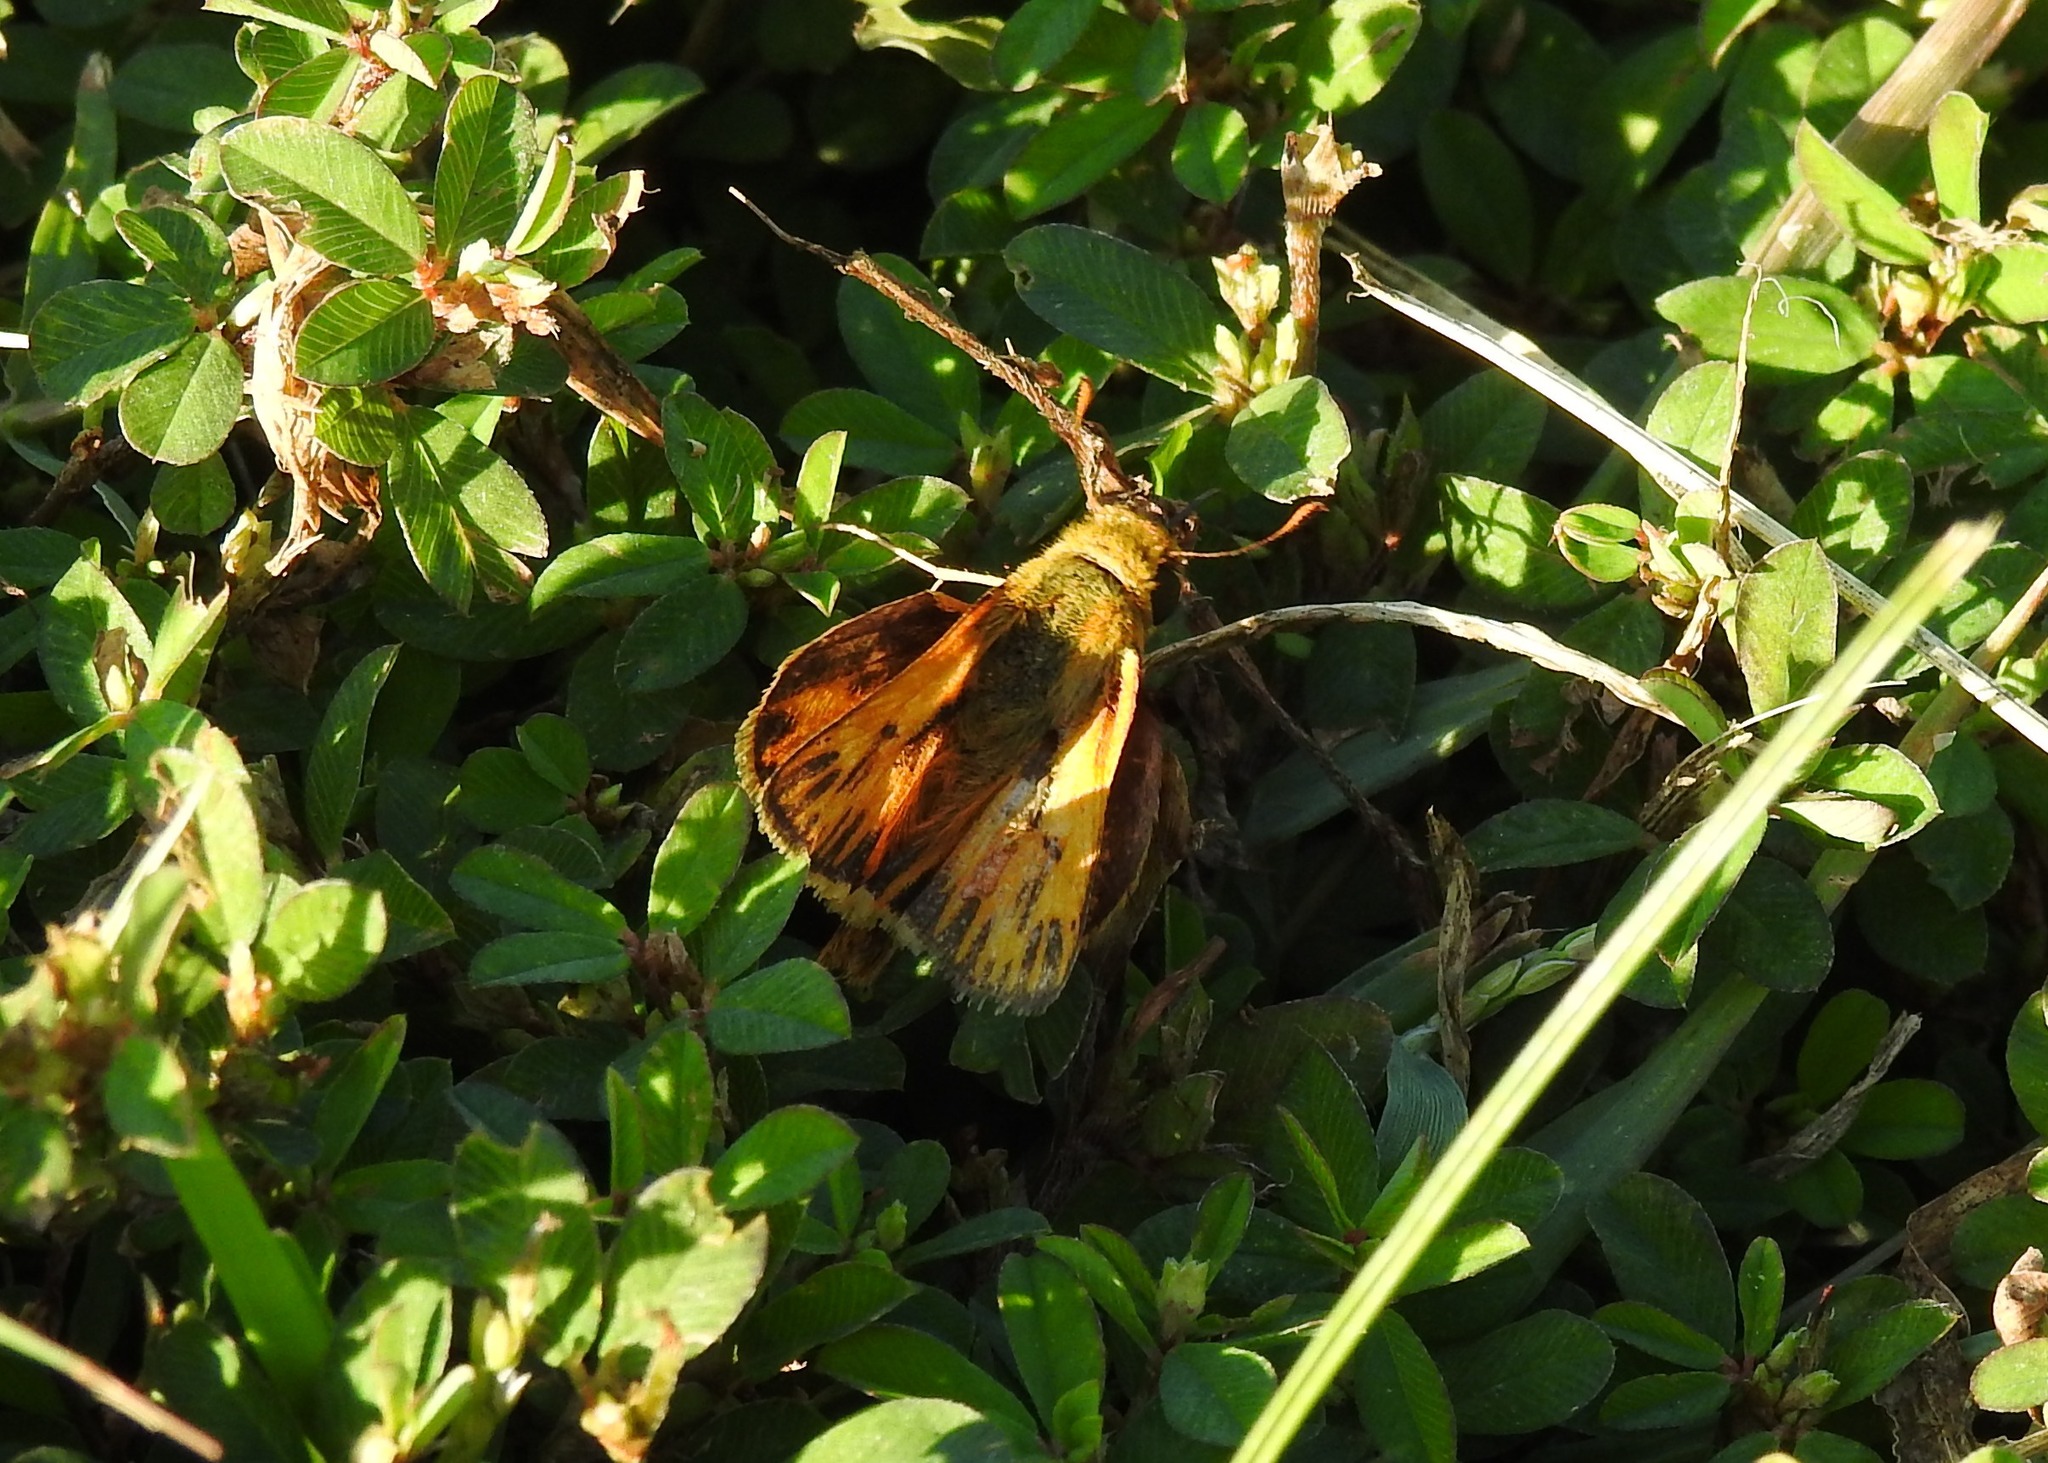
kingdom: Animalia
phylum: Arthropoda
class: Insecta
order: Lepidoptera
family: Hesperiidae
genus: Hylephila
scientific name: Hylephila phyleus
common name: Fiery skipper
